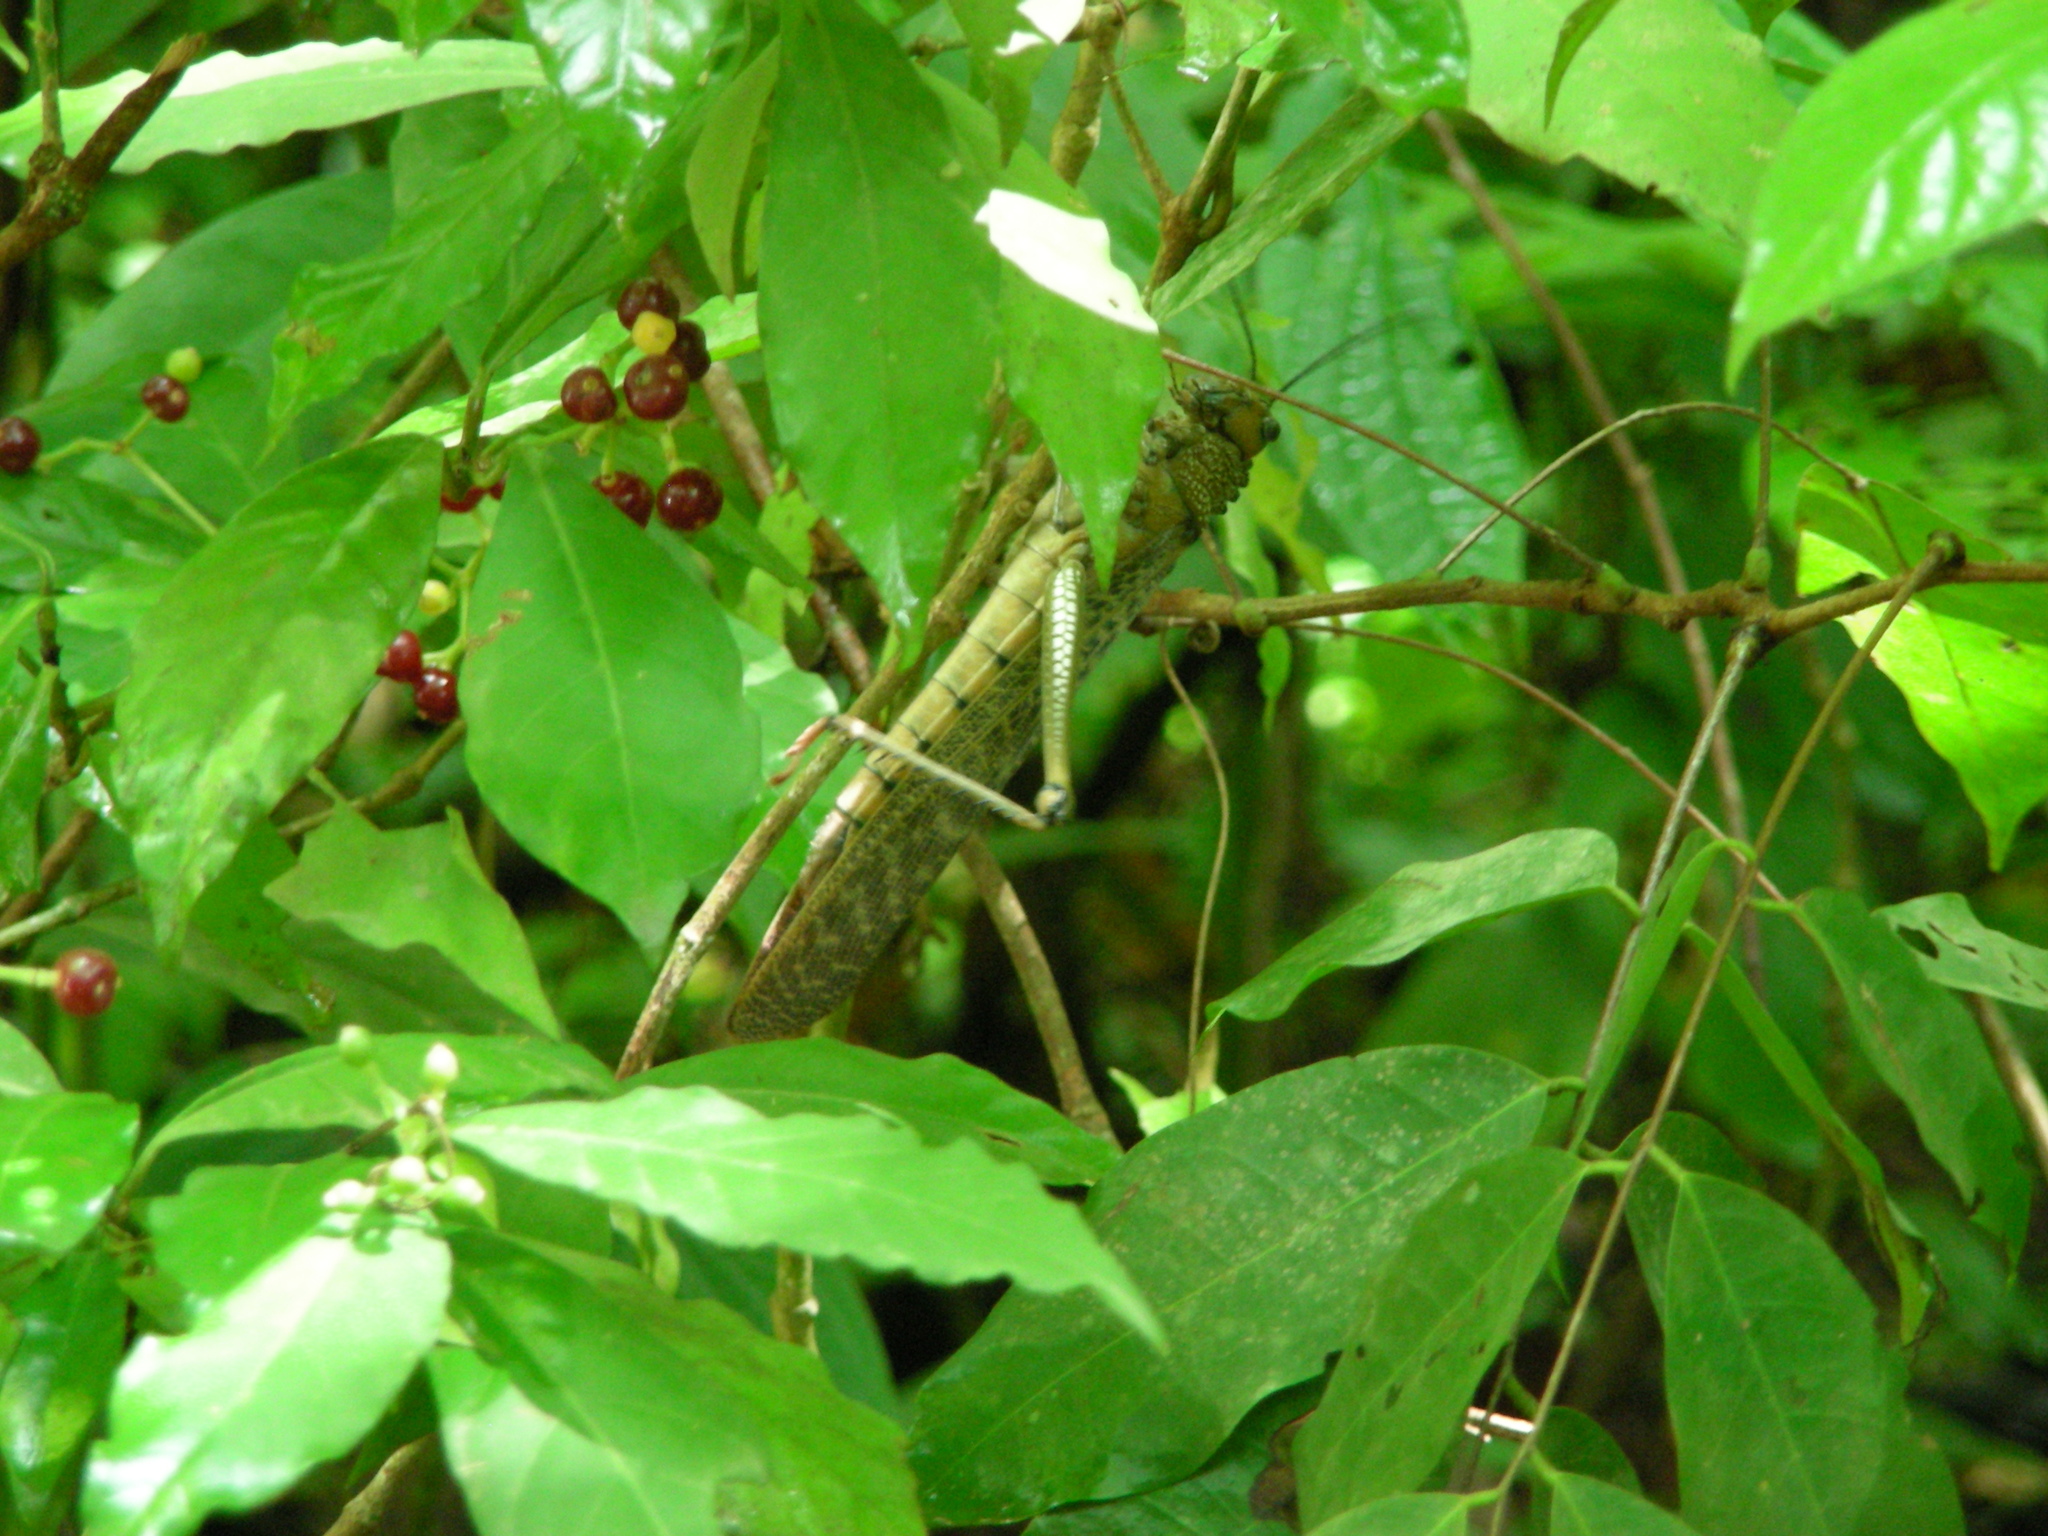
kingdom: Animalia
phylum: Arthropoda
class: Insecta
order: Orthoptera
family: Romaleidae
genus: Tropidacris
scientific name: Tropidacris cristata
